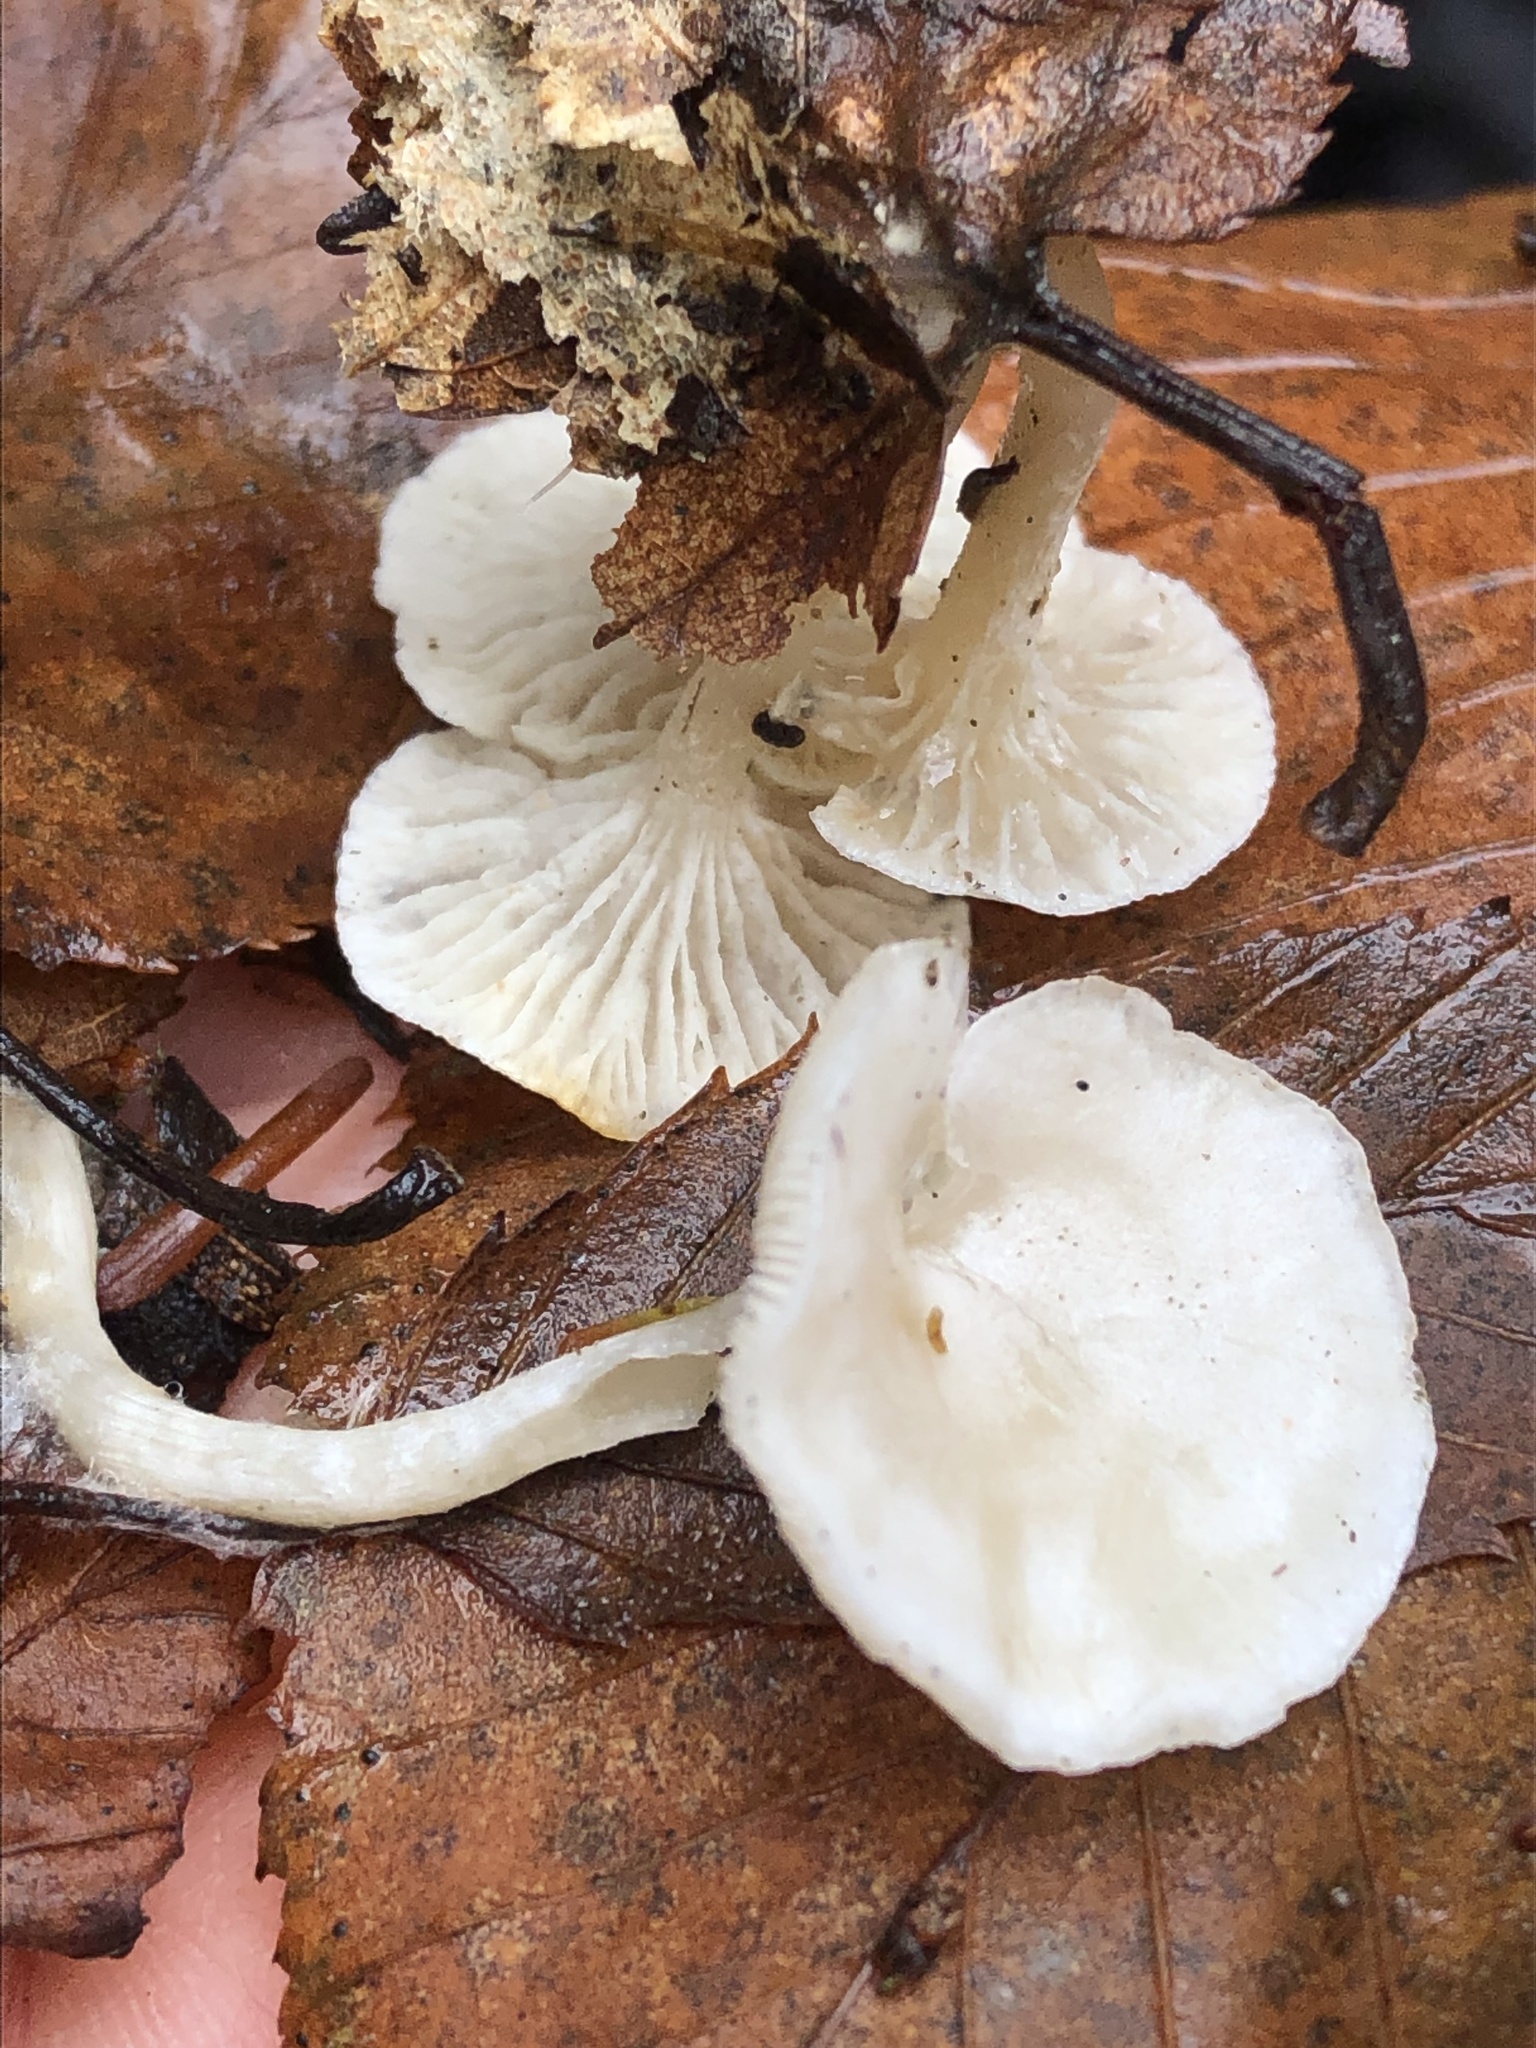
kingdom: Fungi
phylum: Basidiomycota
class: Agaricomycetes
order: Agaricales
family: Hygrophoraceae
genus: Cuphophyllus
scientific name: Cuphophyllus virgineus
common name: Snowy waxcap
